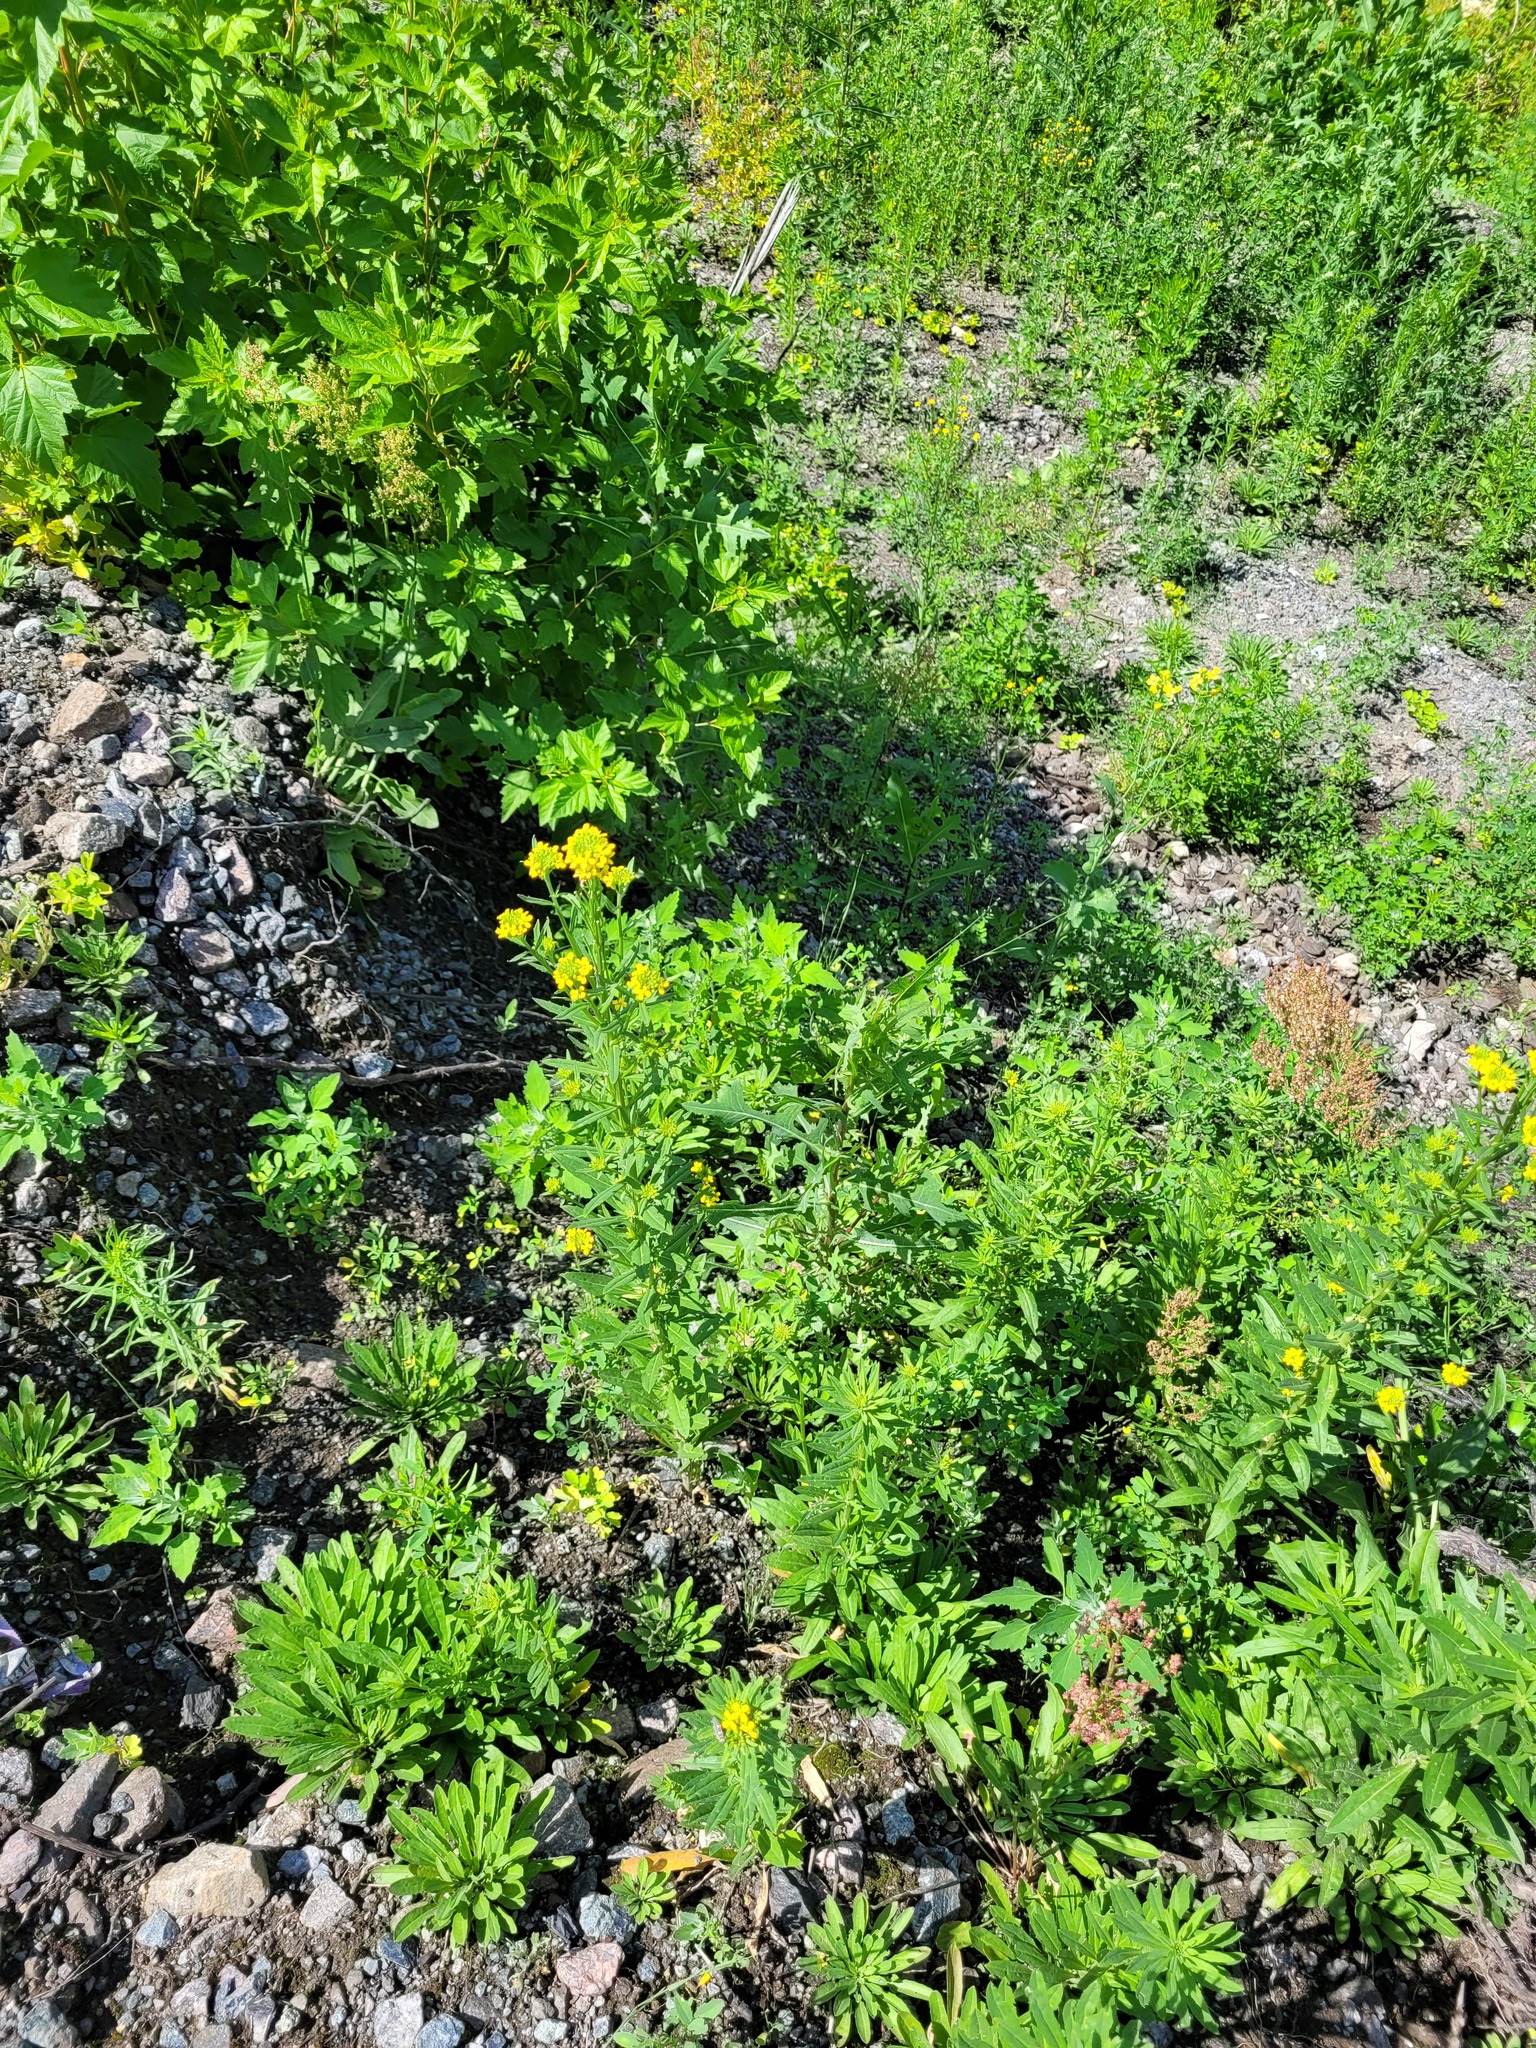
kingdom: Plantae
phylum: Tracheophyta
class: Magnoliopsida
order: Brassicales
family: Brassicaceae
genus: Erysimum
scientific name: Erysimum hieraciifolium
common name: European wallflower
